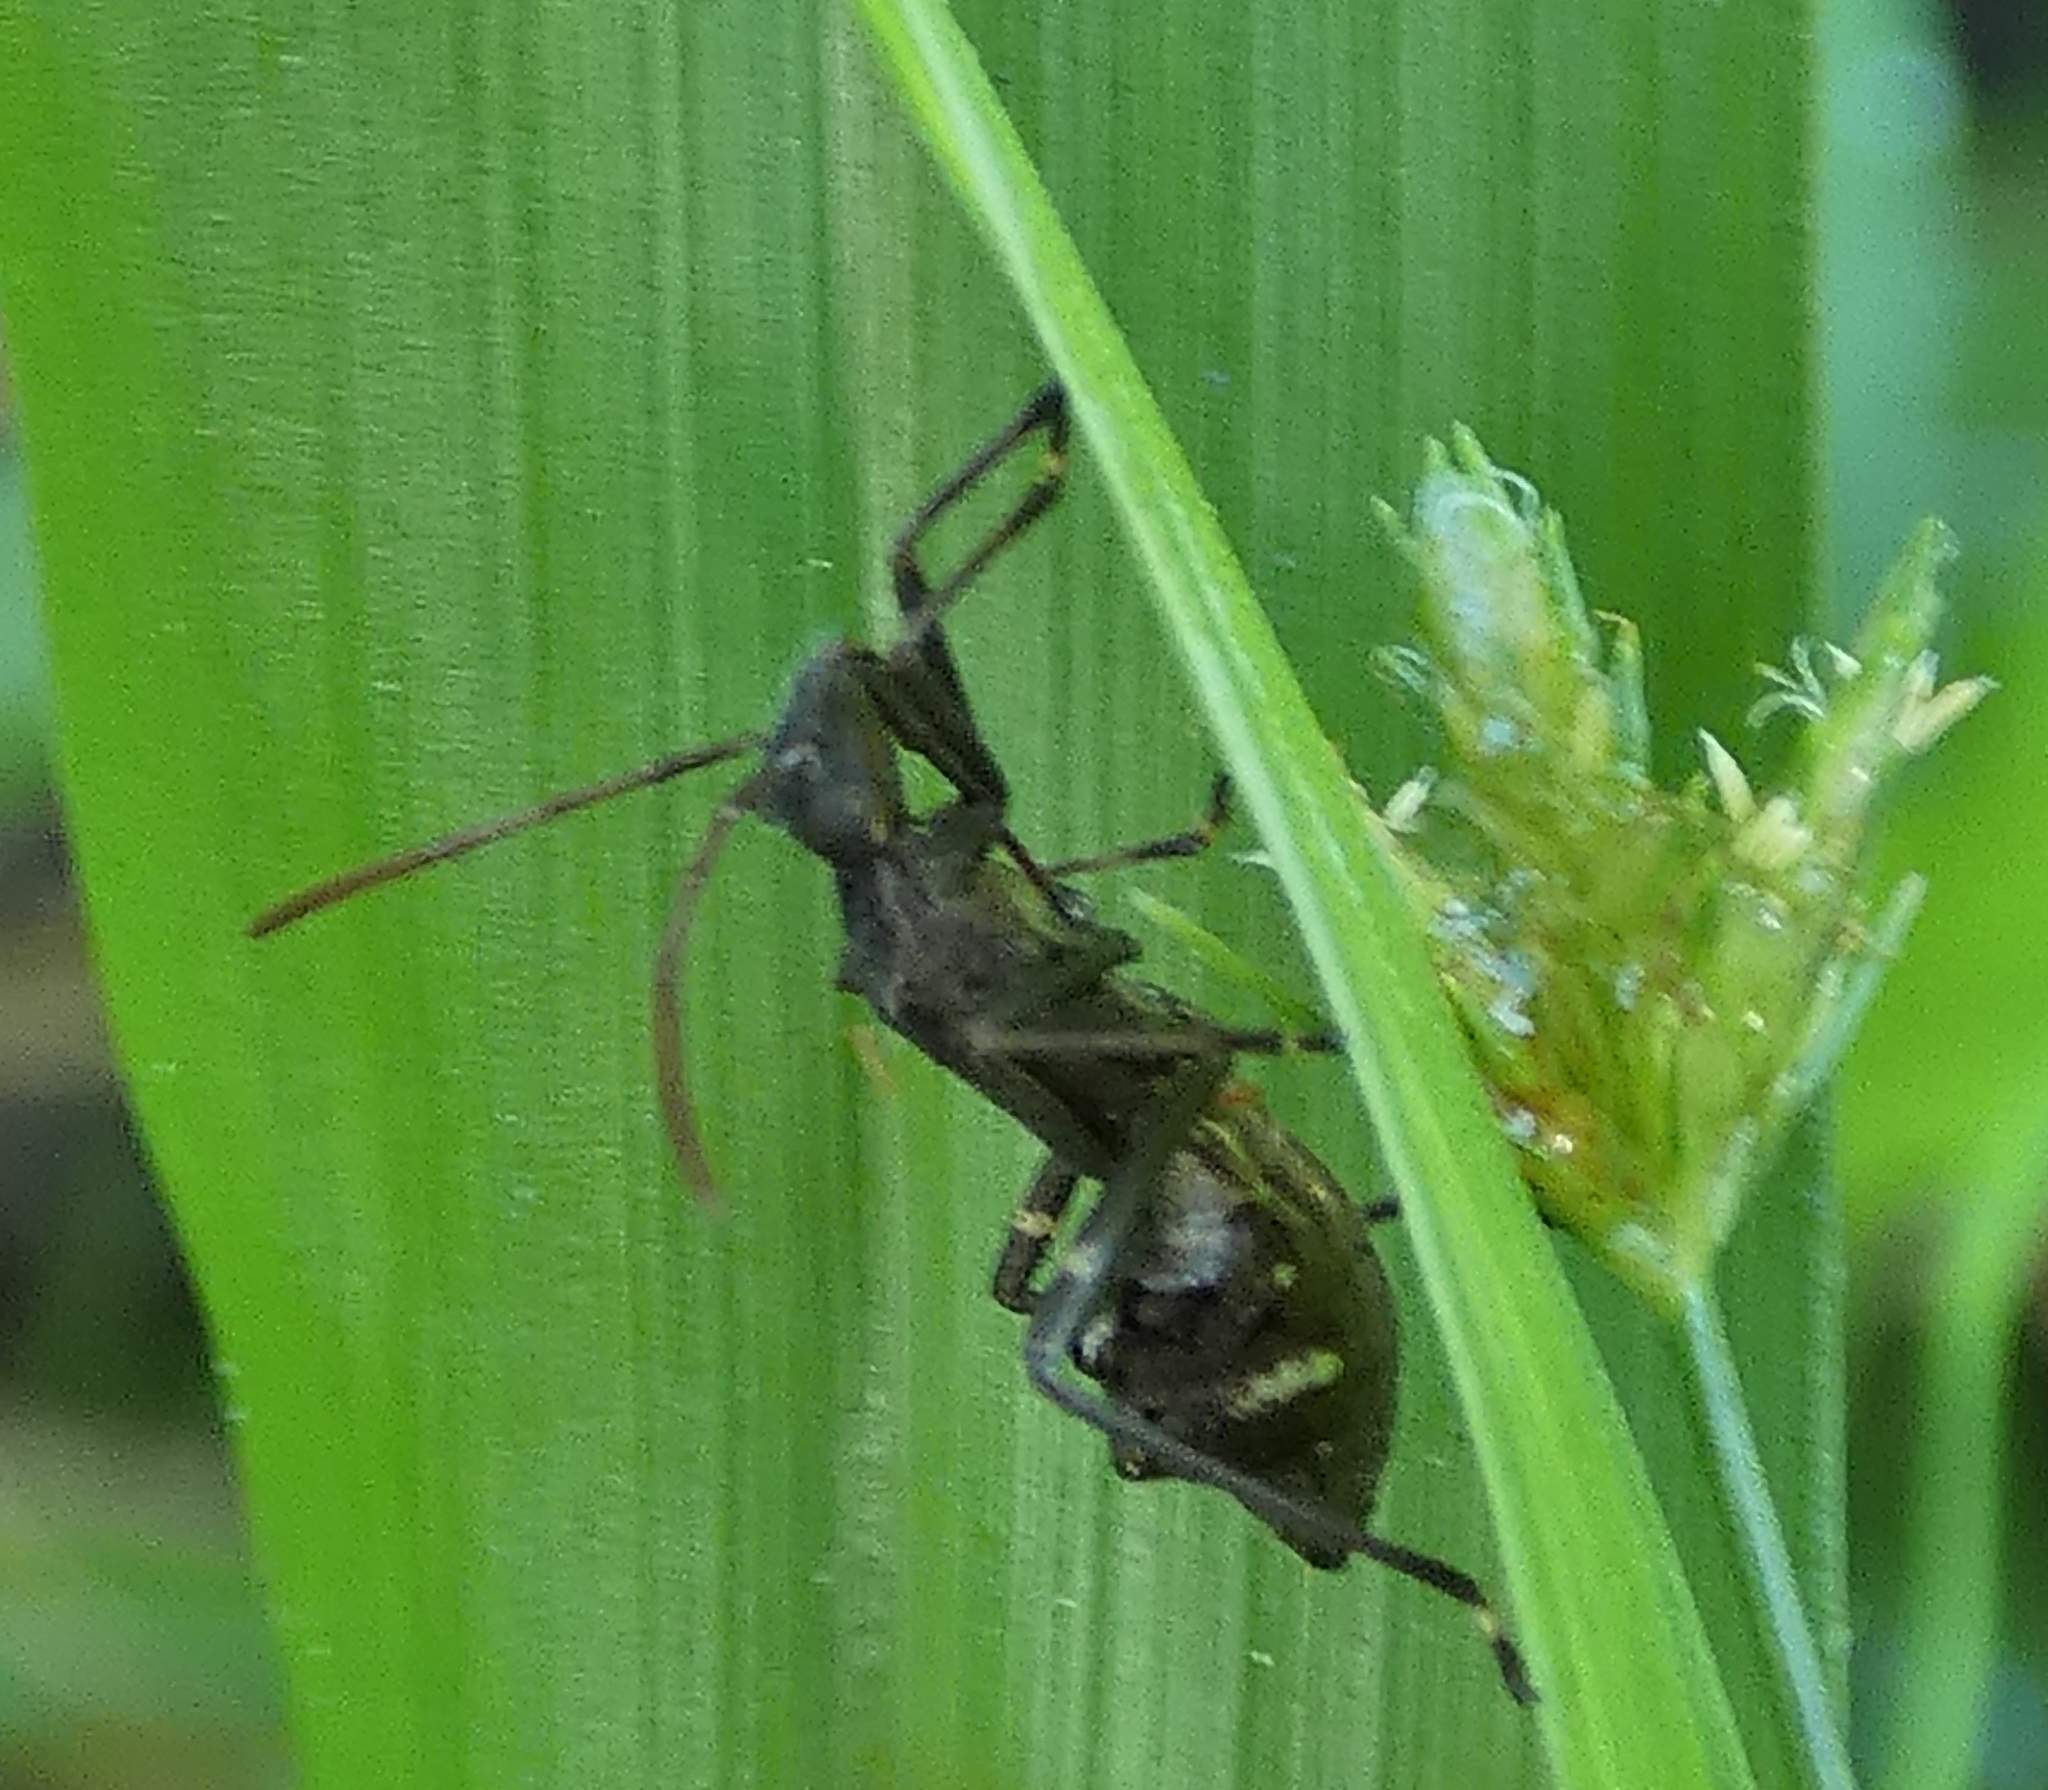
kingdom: Animalia
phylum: Arthropoda
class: Insecta
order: Hemiptera
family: Alydidae
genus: Neomegalotomus
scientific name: Neomegalotomus parvus
